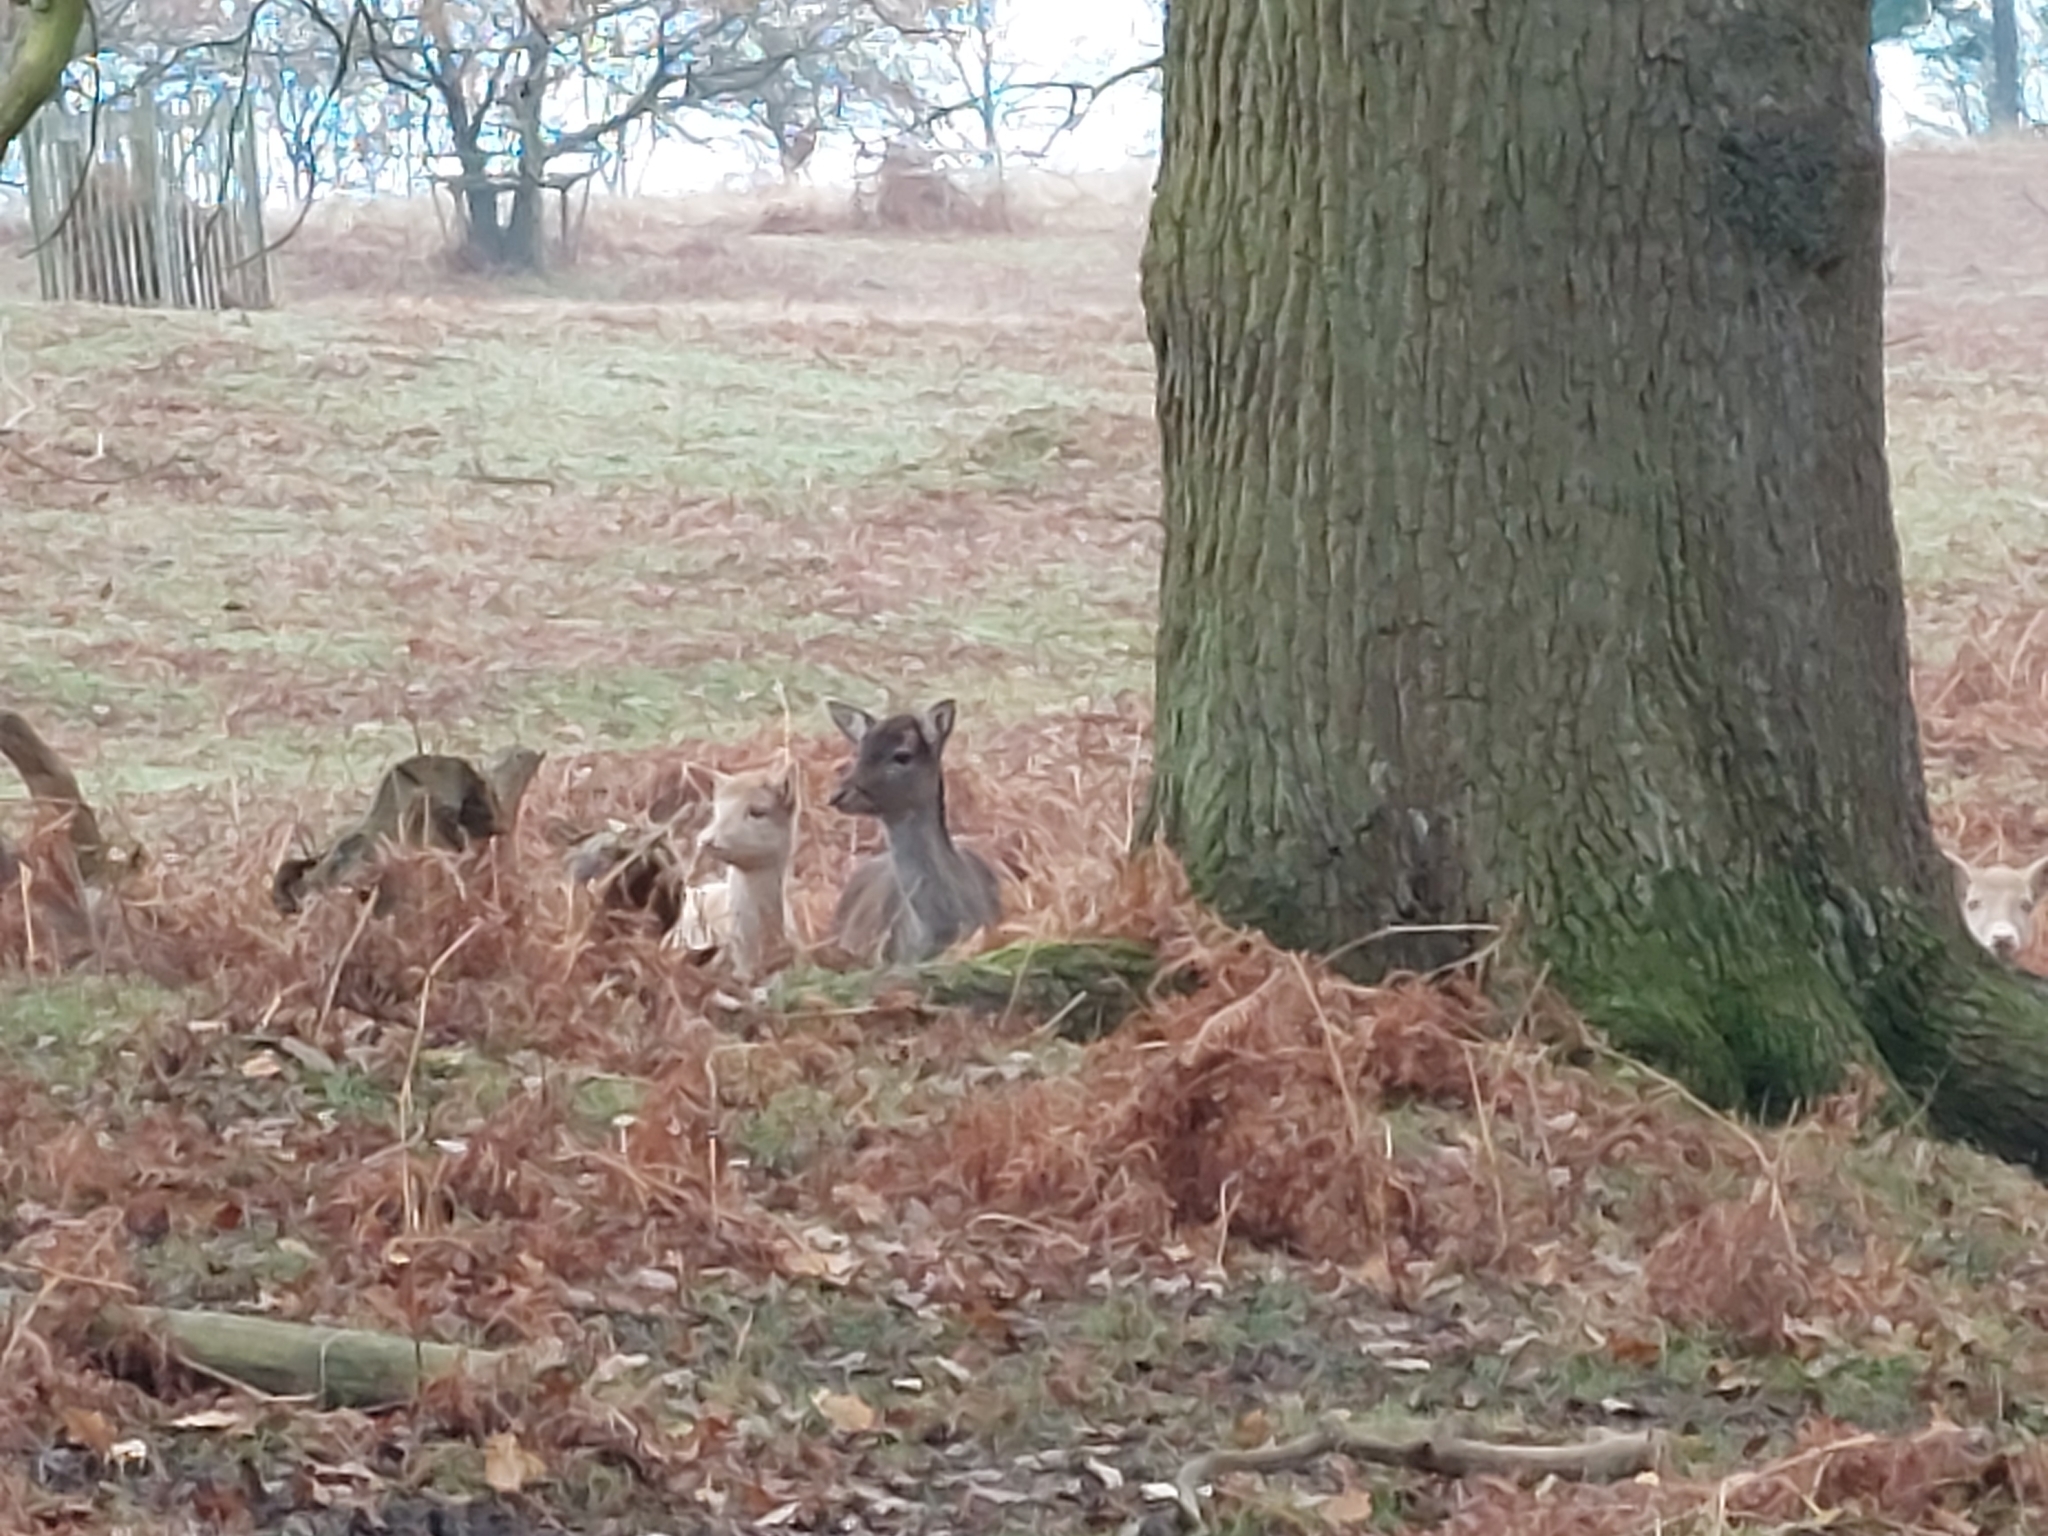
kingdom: Animalia
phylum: Chordata
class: Mammalia
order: Artiodactyla
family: Cervidae
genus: Dama
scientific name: Dama dama
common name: Fallow deer
